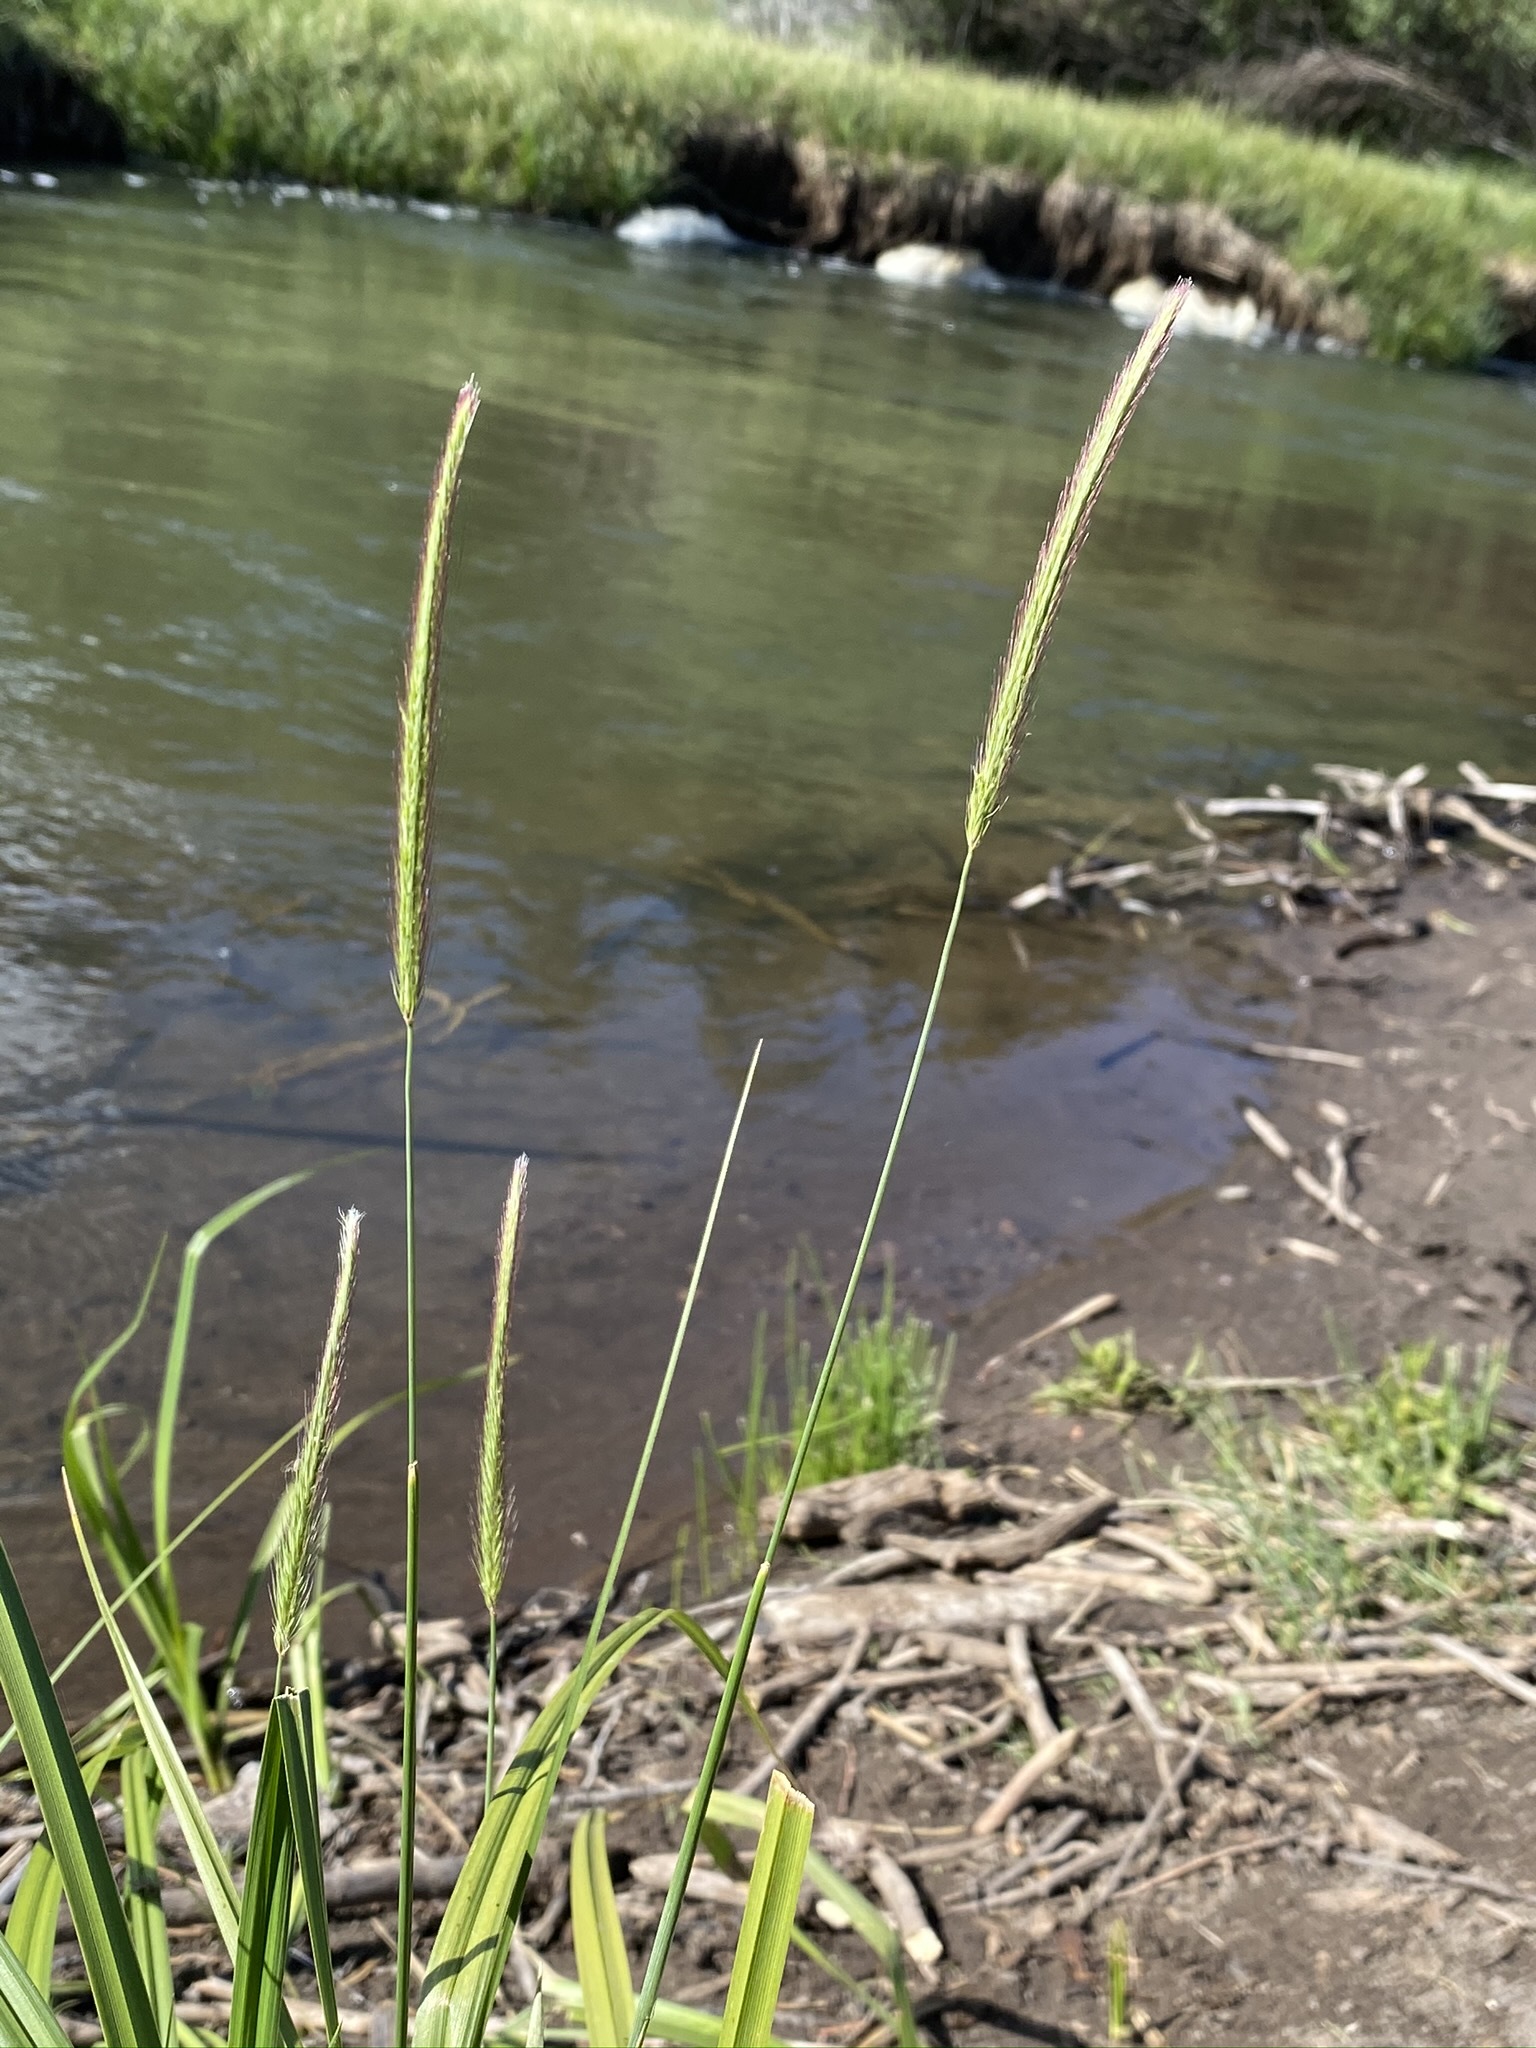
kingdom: Plantae
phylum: Tracheophyta
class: Liliopsida
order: Poales
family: Poaceae
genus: Hordeum
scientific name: Hordeum brachyantherum
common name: Meadow barley
